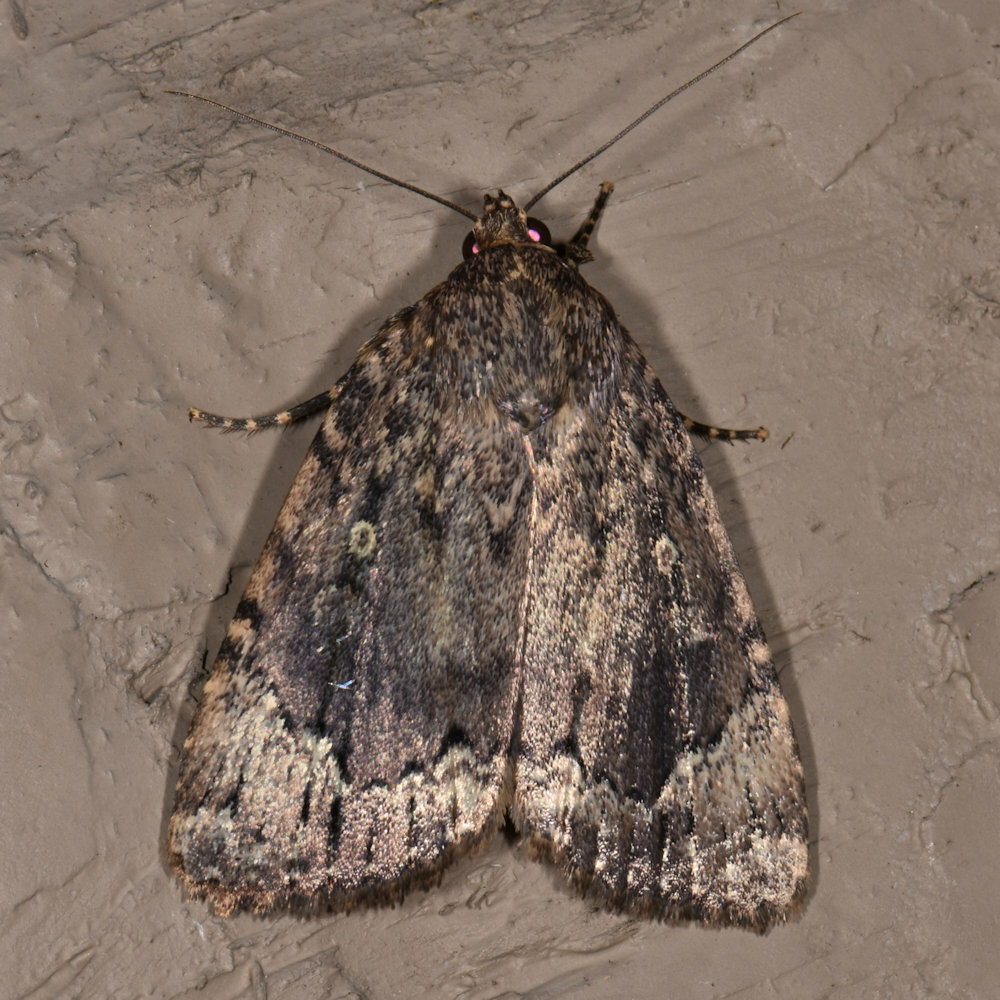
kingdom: Animalia
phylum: Arthropoda
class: Insecta
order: Lepidoptera
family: Noctuidae
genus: Amphipyra
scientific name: Amphipyra pyramidoides
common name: American copper underwing
